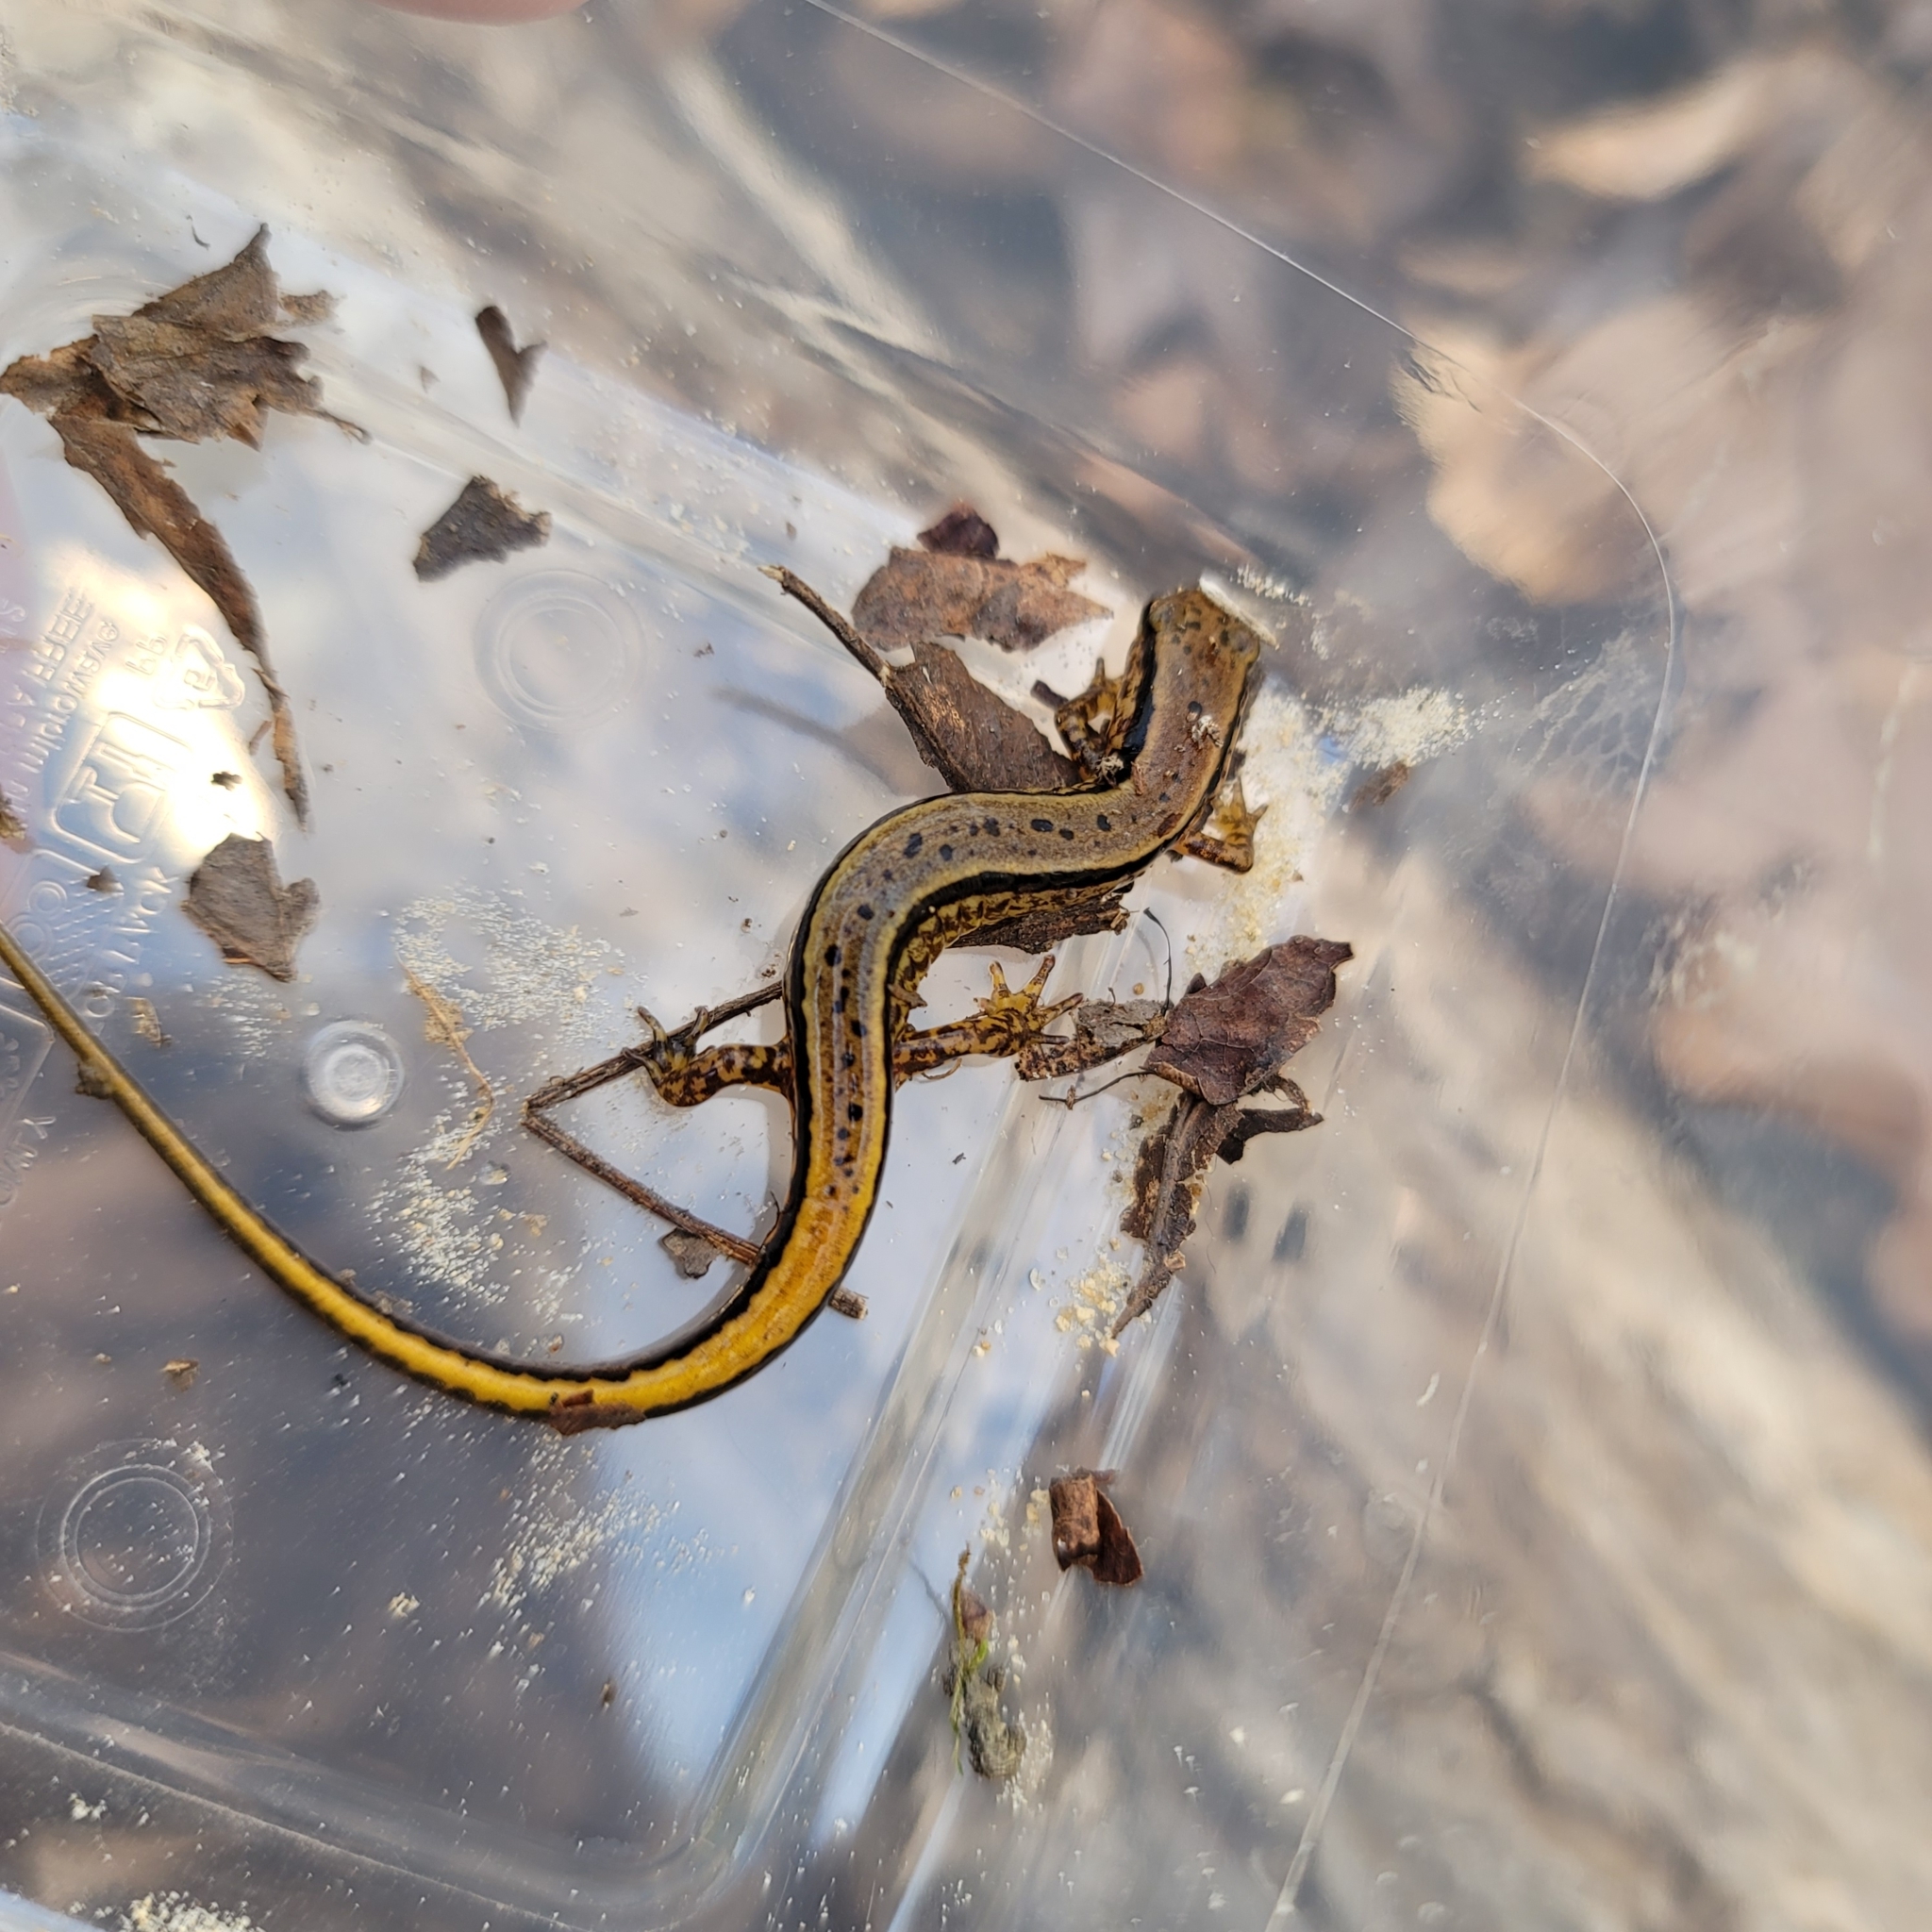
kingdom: Animalia
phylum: Chordata
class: Amphibia
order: Caudata
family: Plethodontidae
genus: Eurycea
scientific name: Eurycea cirrigera
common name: Southern two-lined salamander
